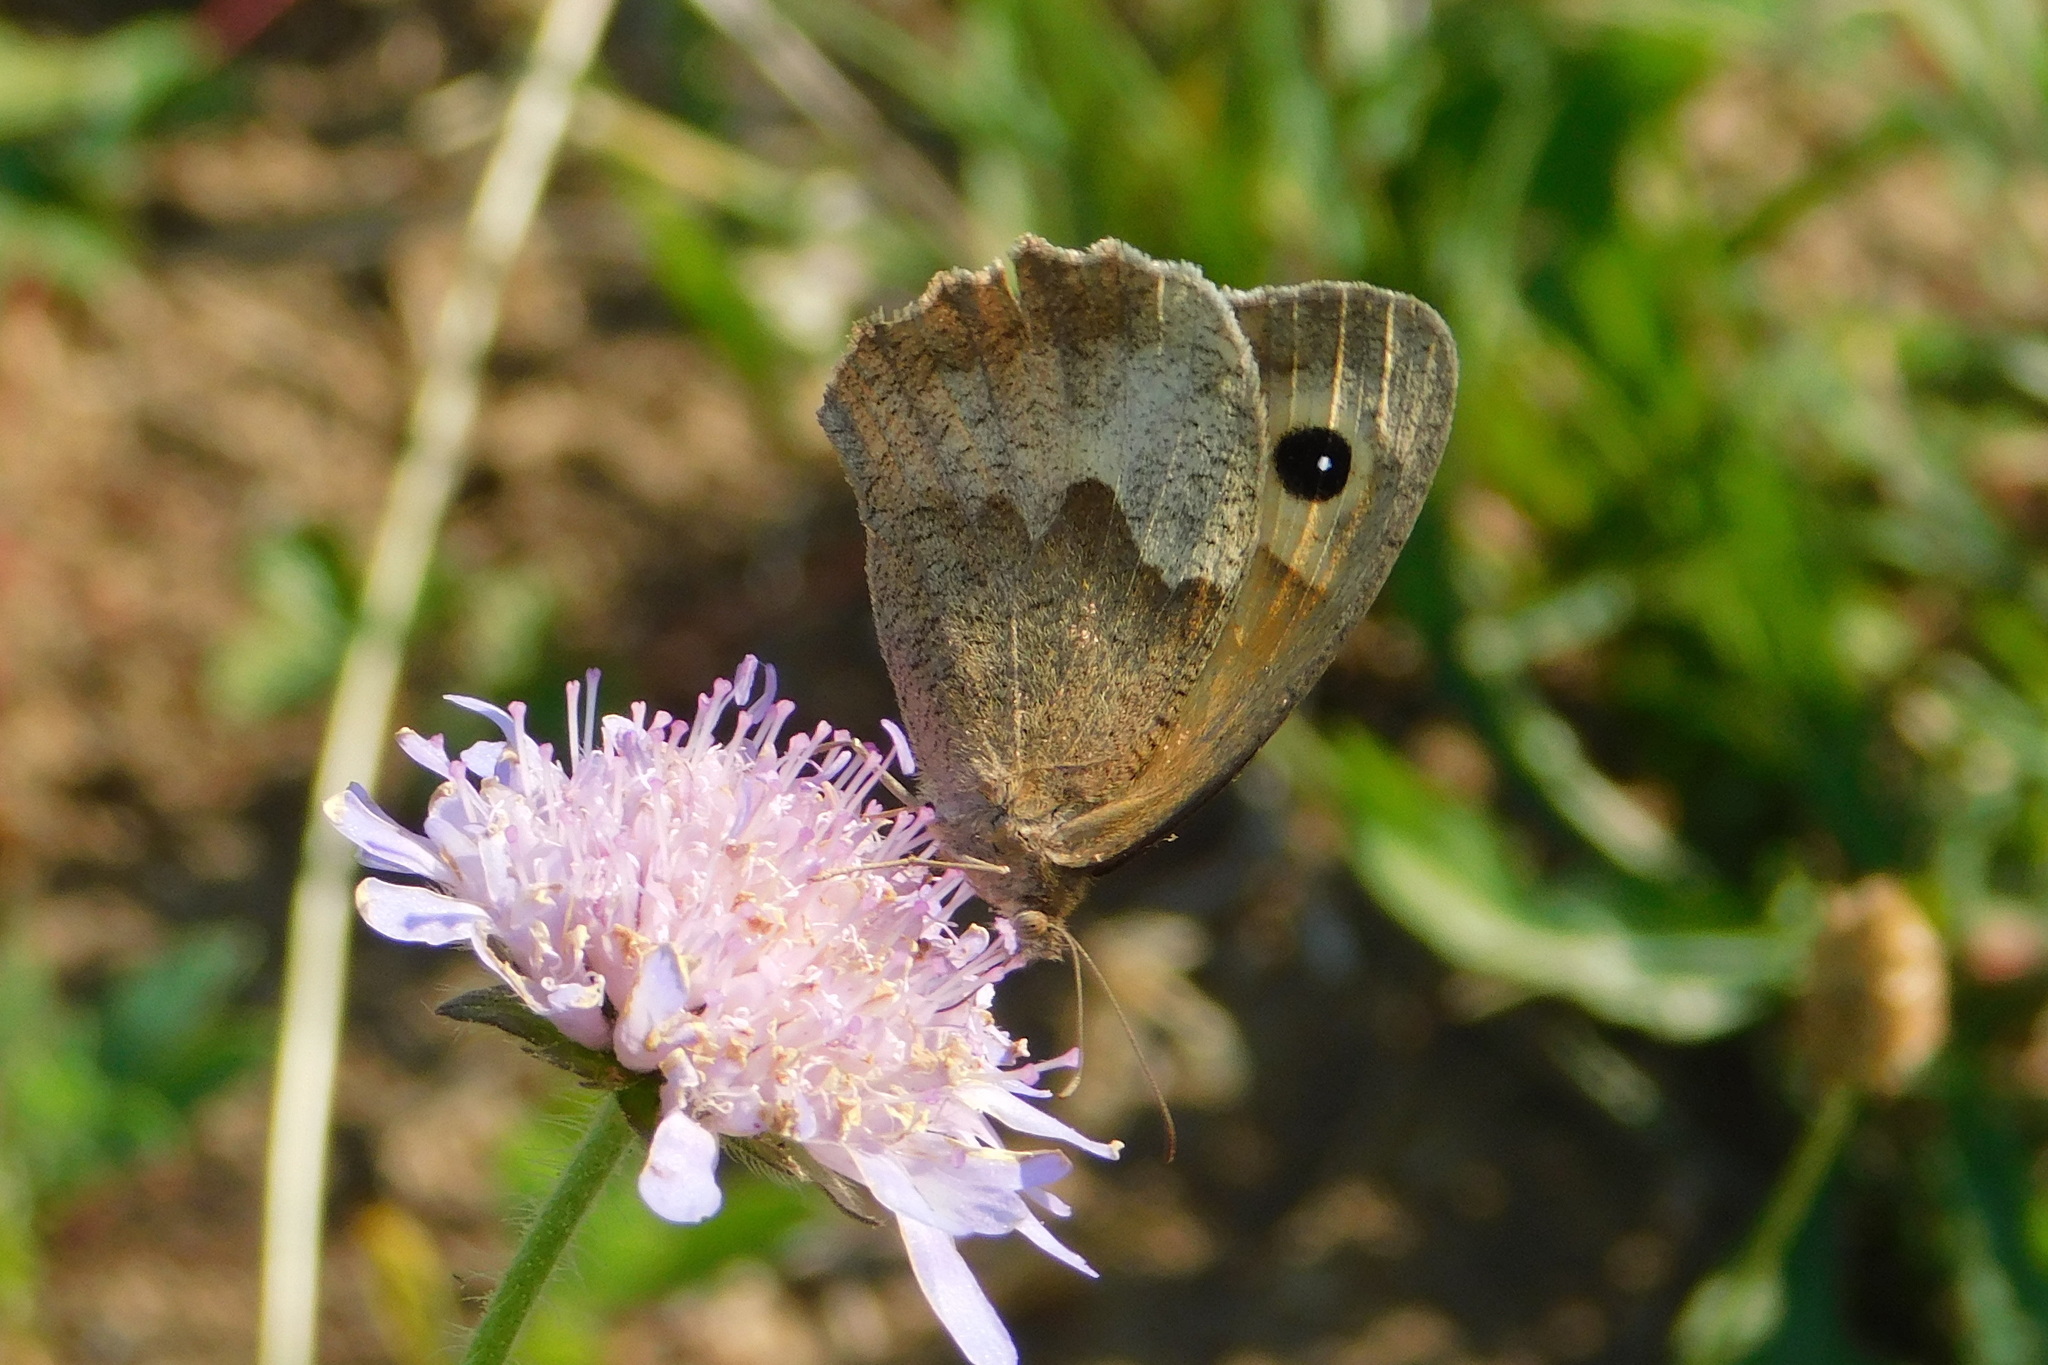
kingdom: Animalia
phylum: Arthropoda
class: Insecta
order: Lepidoptera
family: Nymphalidae
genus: Maniola
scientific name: Maniola jurtina
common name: Meadow brown
